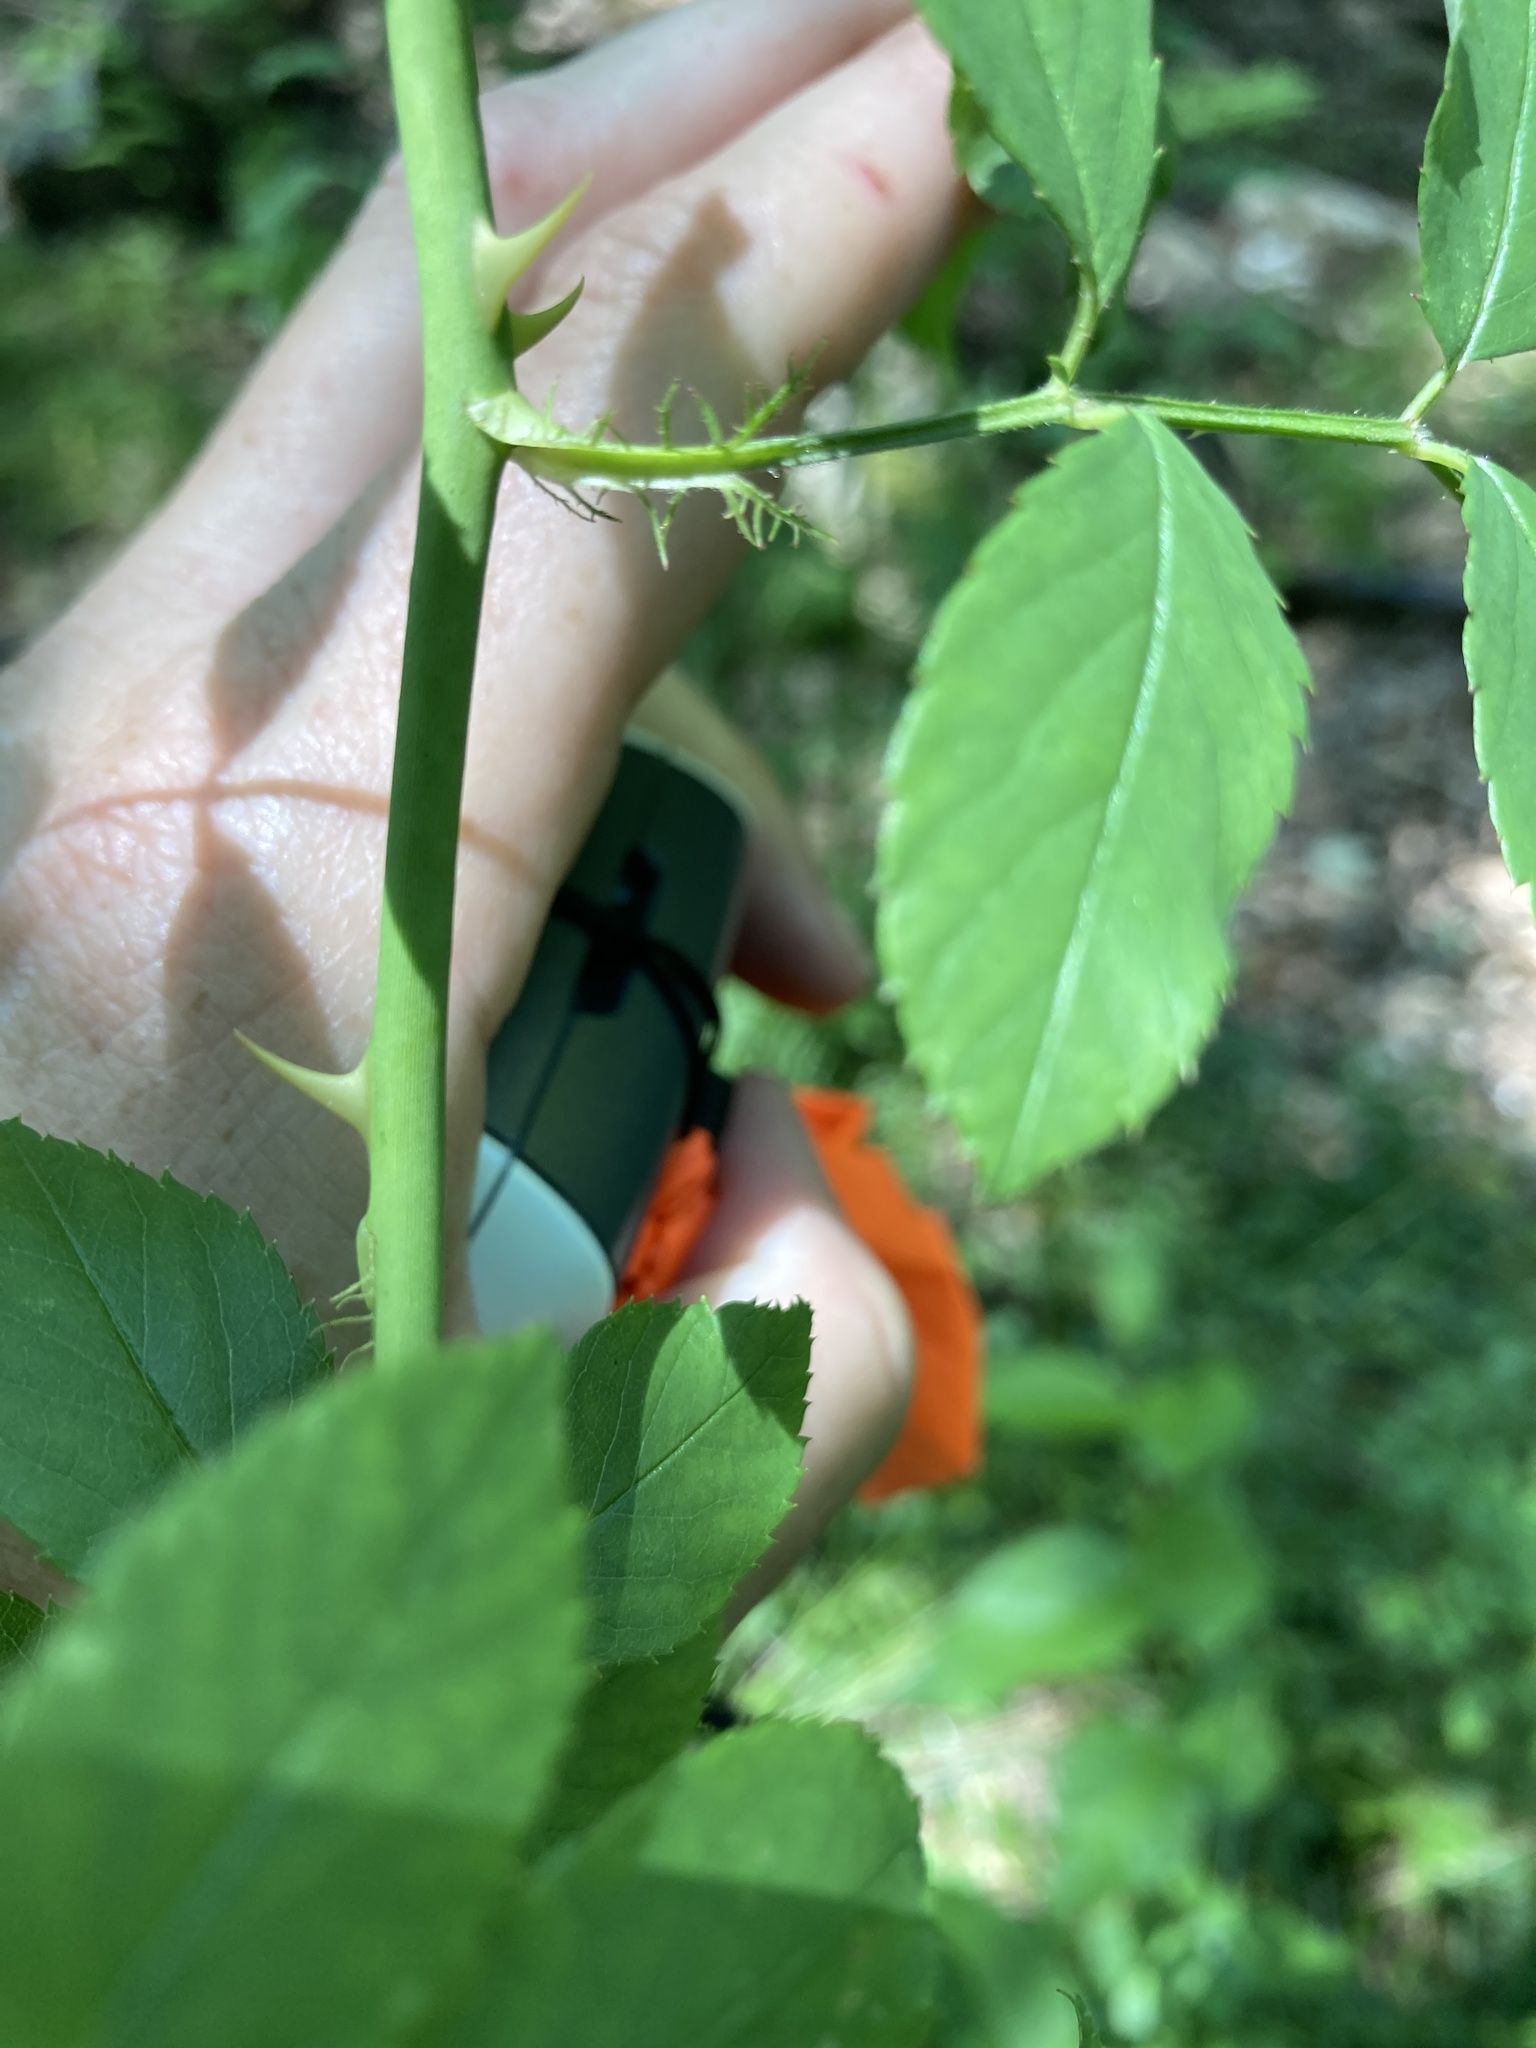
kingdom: Plantae
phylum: Tracheophyta
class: Magnoliopsida
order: Rosales
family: Rosaceae
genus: Rosa
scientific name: Rosa multiflora
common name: Multiflora rose
